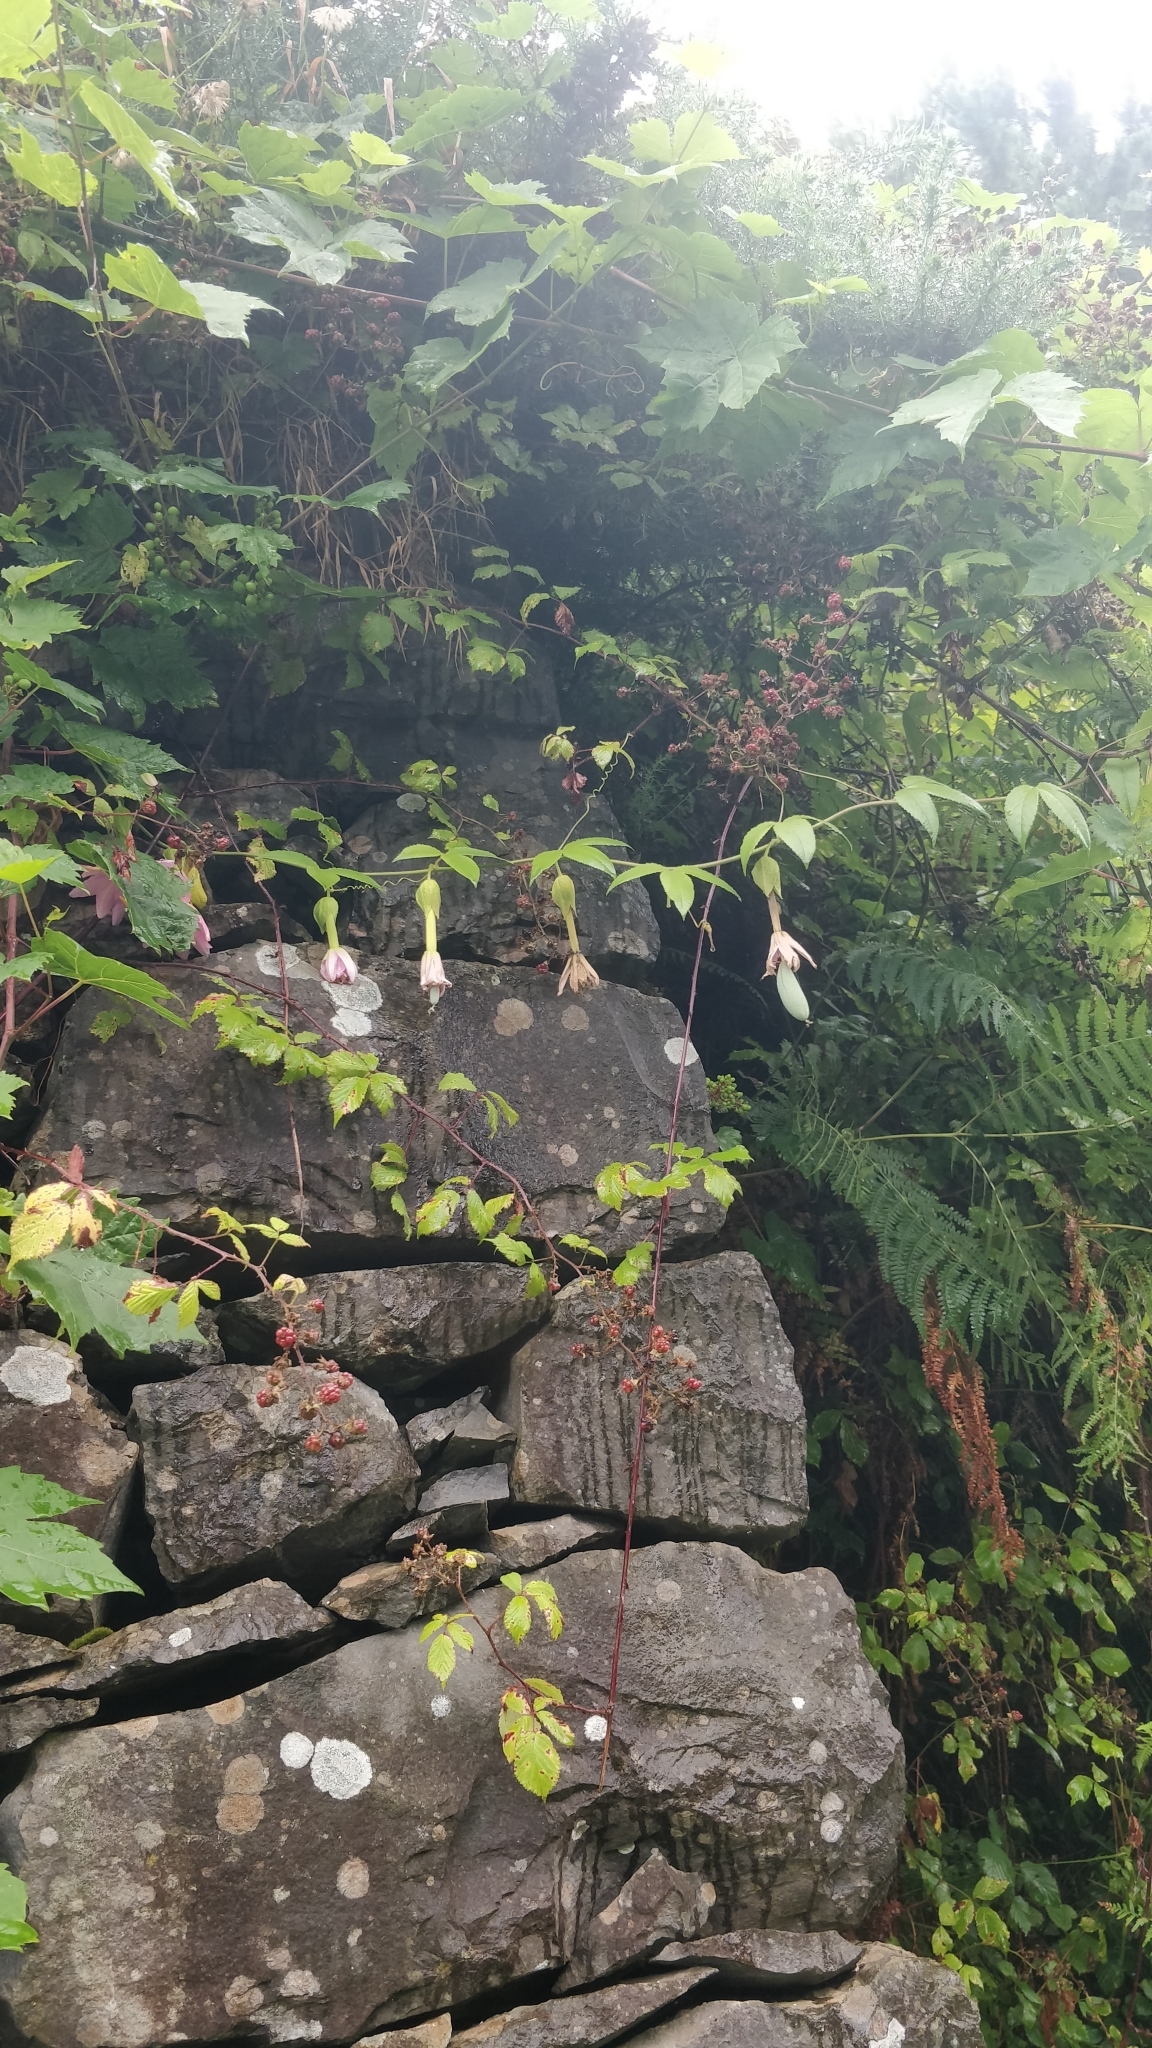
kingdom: Plantae
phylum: Tracheophyta
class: Magnoliopsida
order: Malpighiales
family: Passifloraceae
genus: Passiflora
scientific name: Passiflora tarminiana
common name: Banana poka
